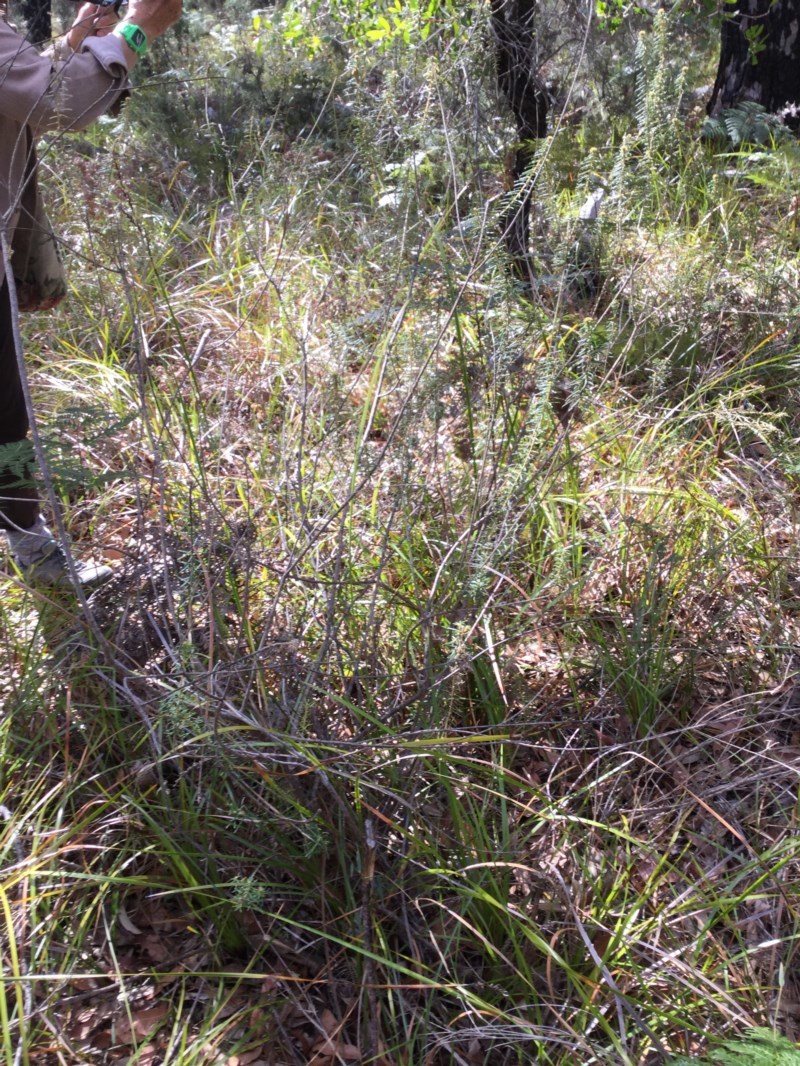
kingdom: Plantae
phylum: Tracheophyta
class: Magnoliopsida
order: Apiales
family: Araliaceae
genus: Astrotricha
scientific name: Astrotricha
